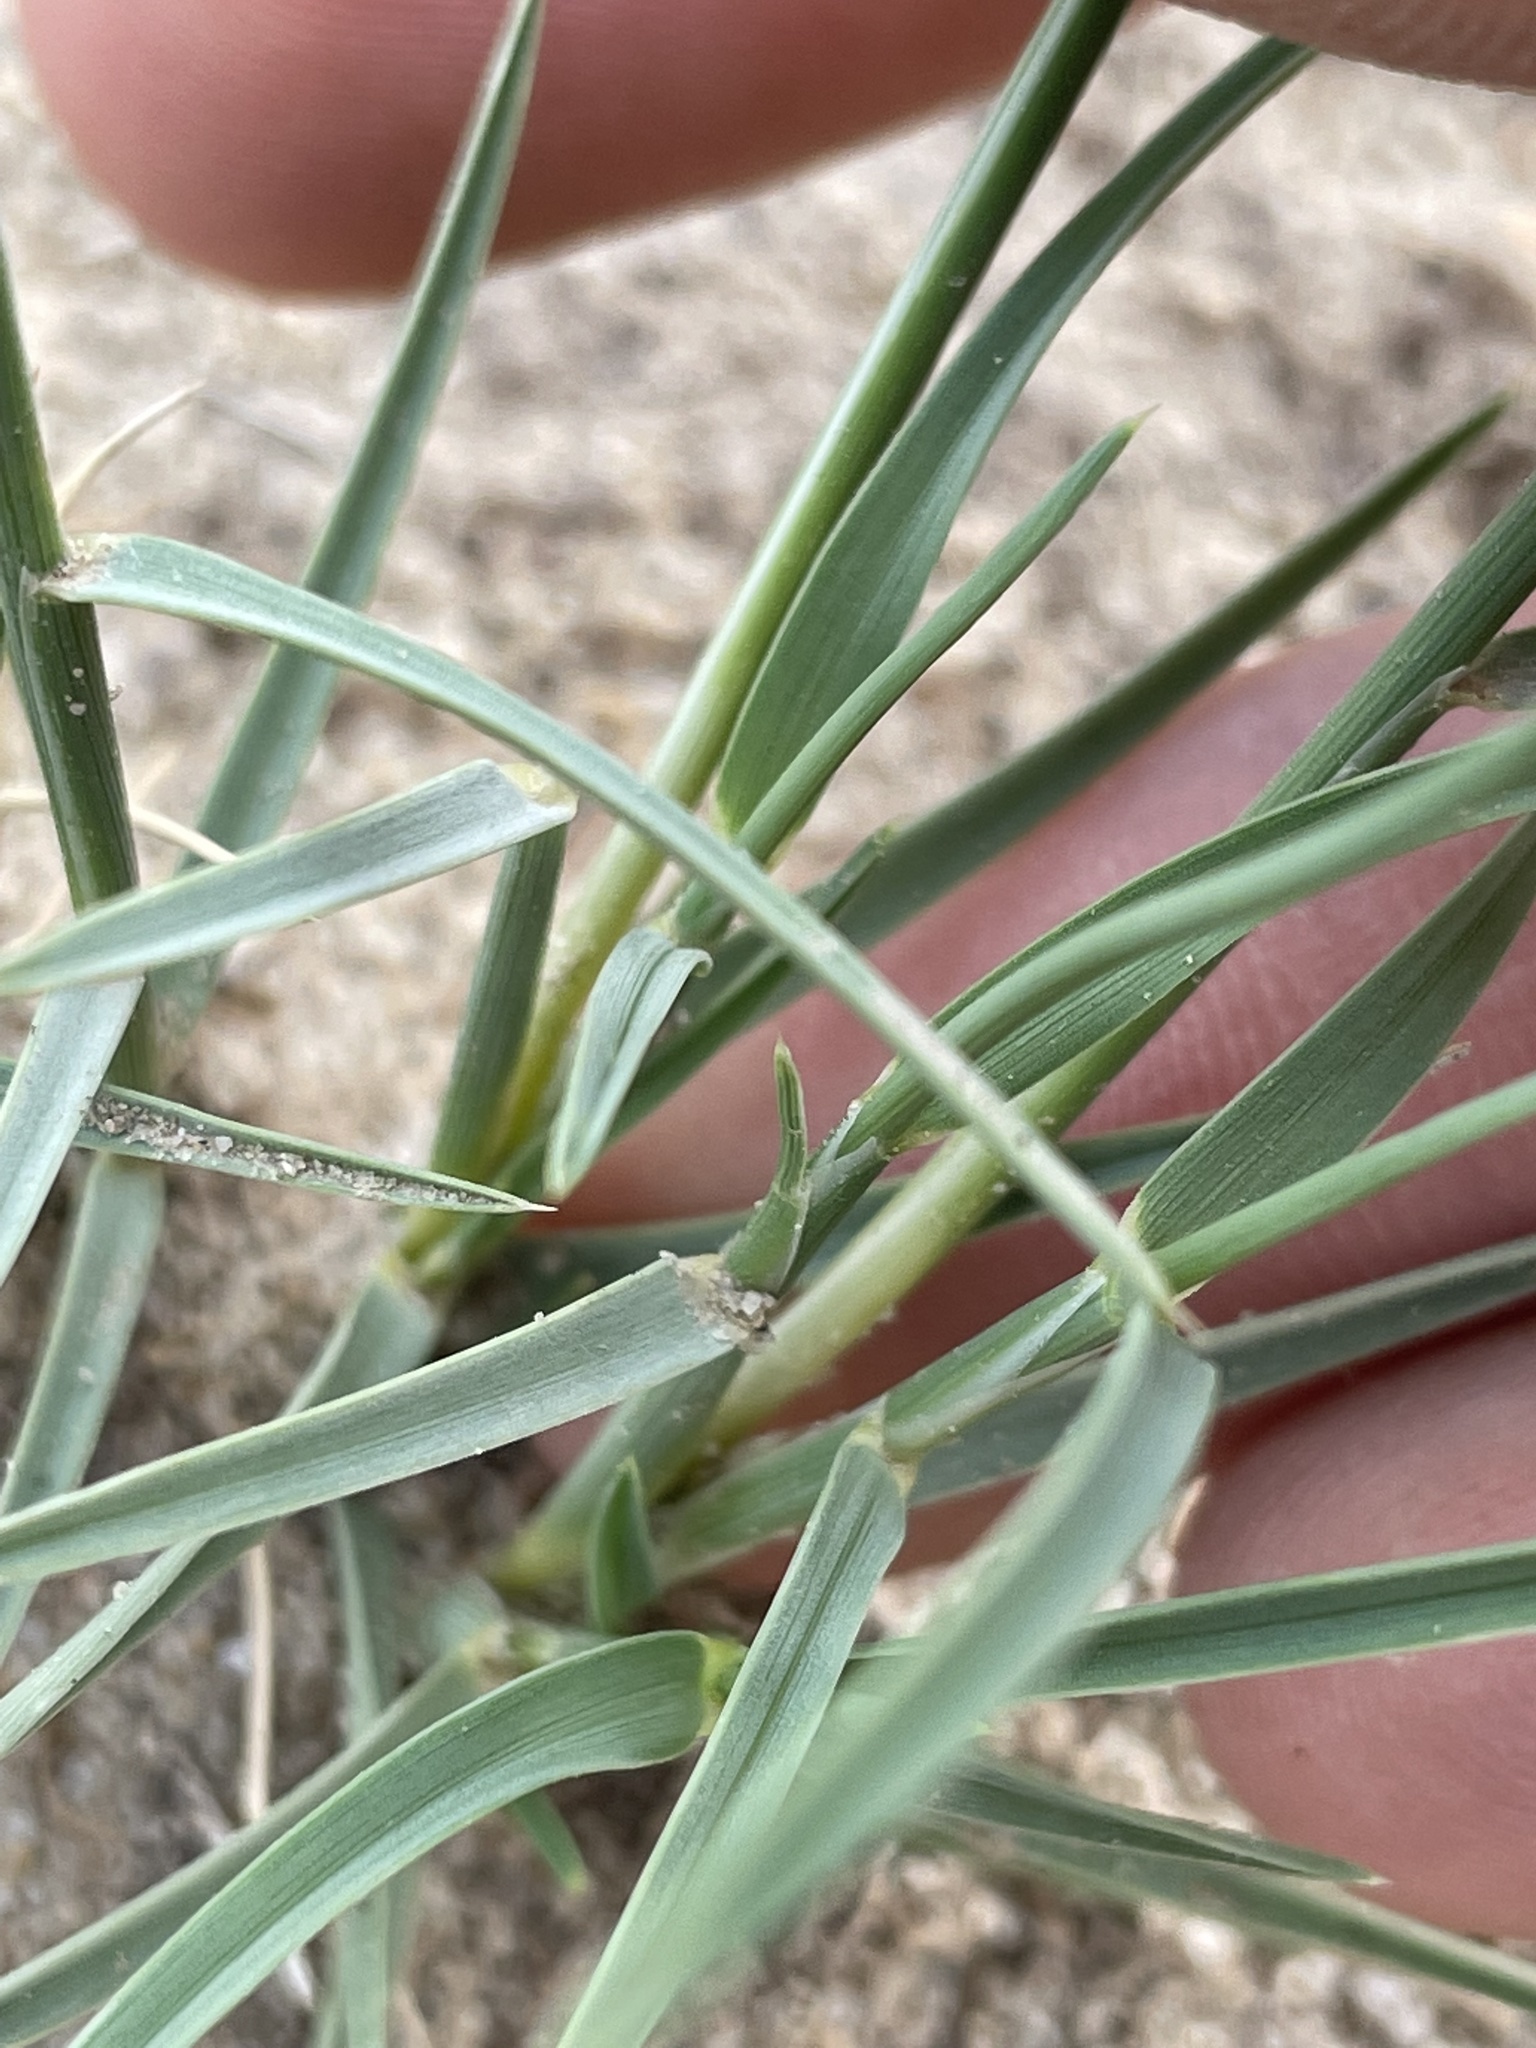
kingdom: Plantae
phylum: Tracheophyta
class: Liliopsida
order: Poales
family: Poaceae
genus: Muhlenbergia
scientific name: Muhlenbergia pungens
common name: Sandhill muhly
